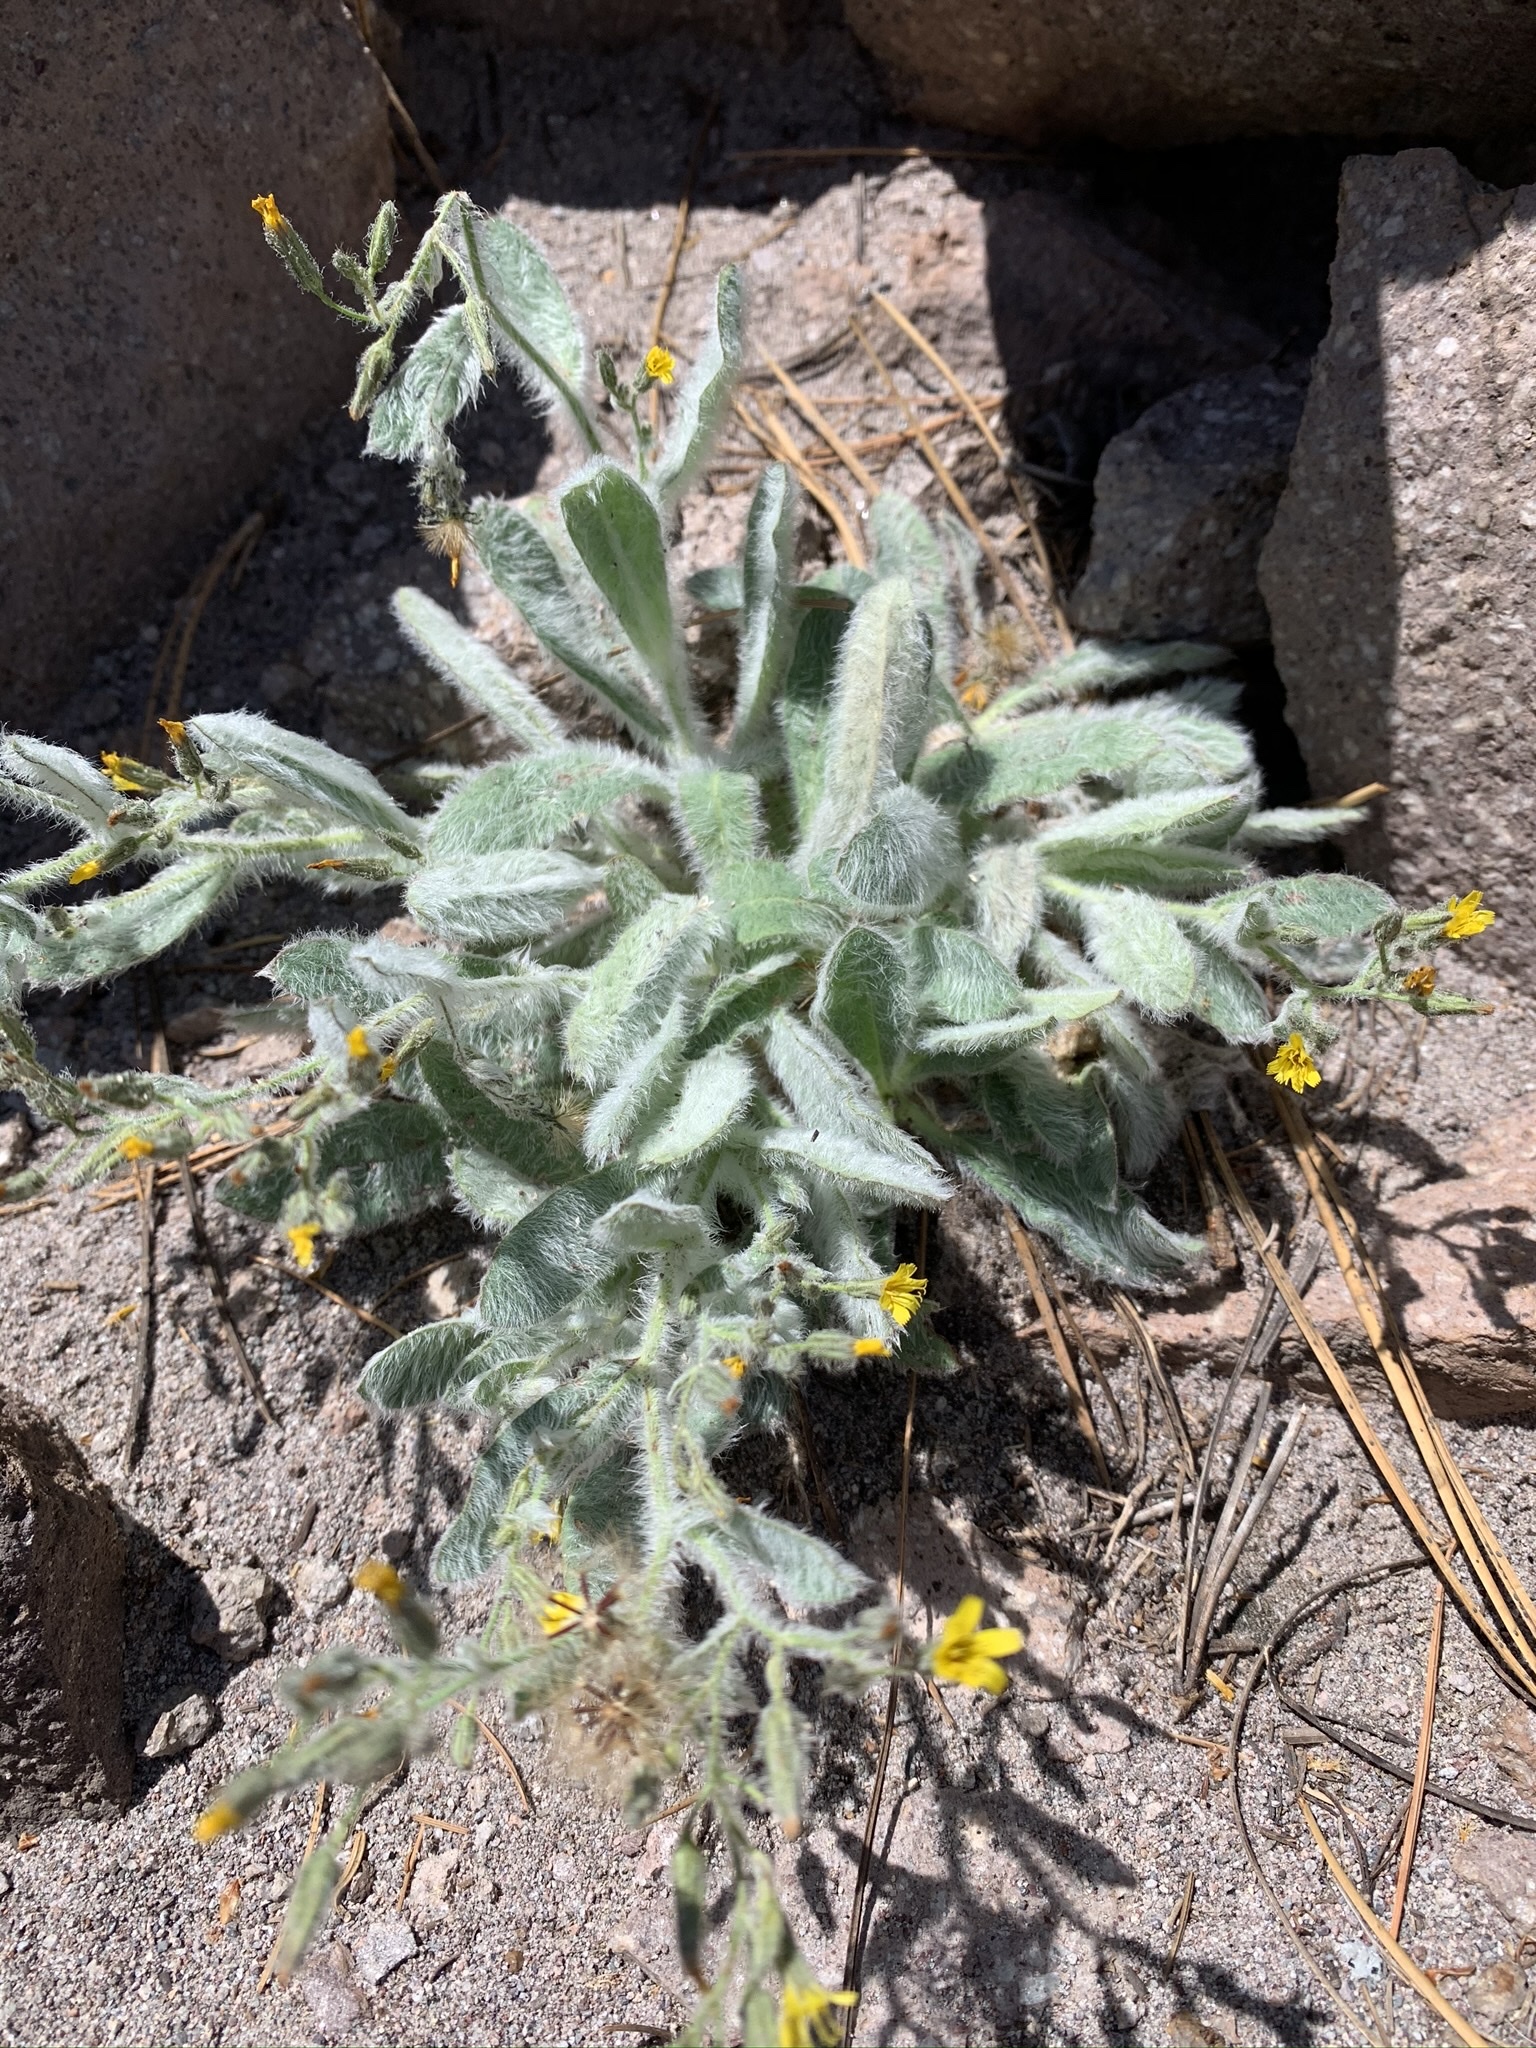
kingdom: Plantae
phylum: Tracheophyta
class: Magnoliopsida
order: Asterales
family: Asteraceae
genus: Hieracium
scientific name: Hieracium horridum
